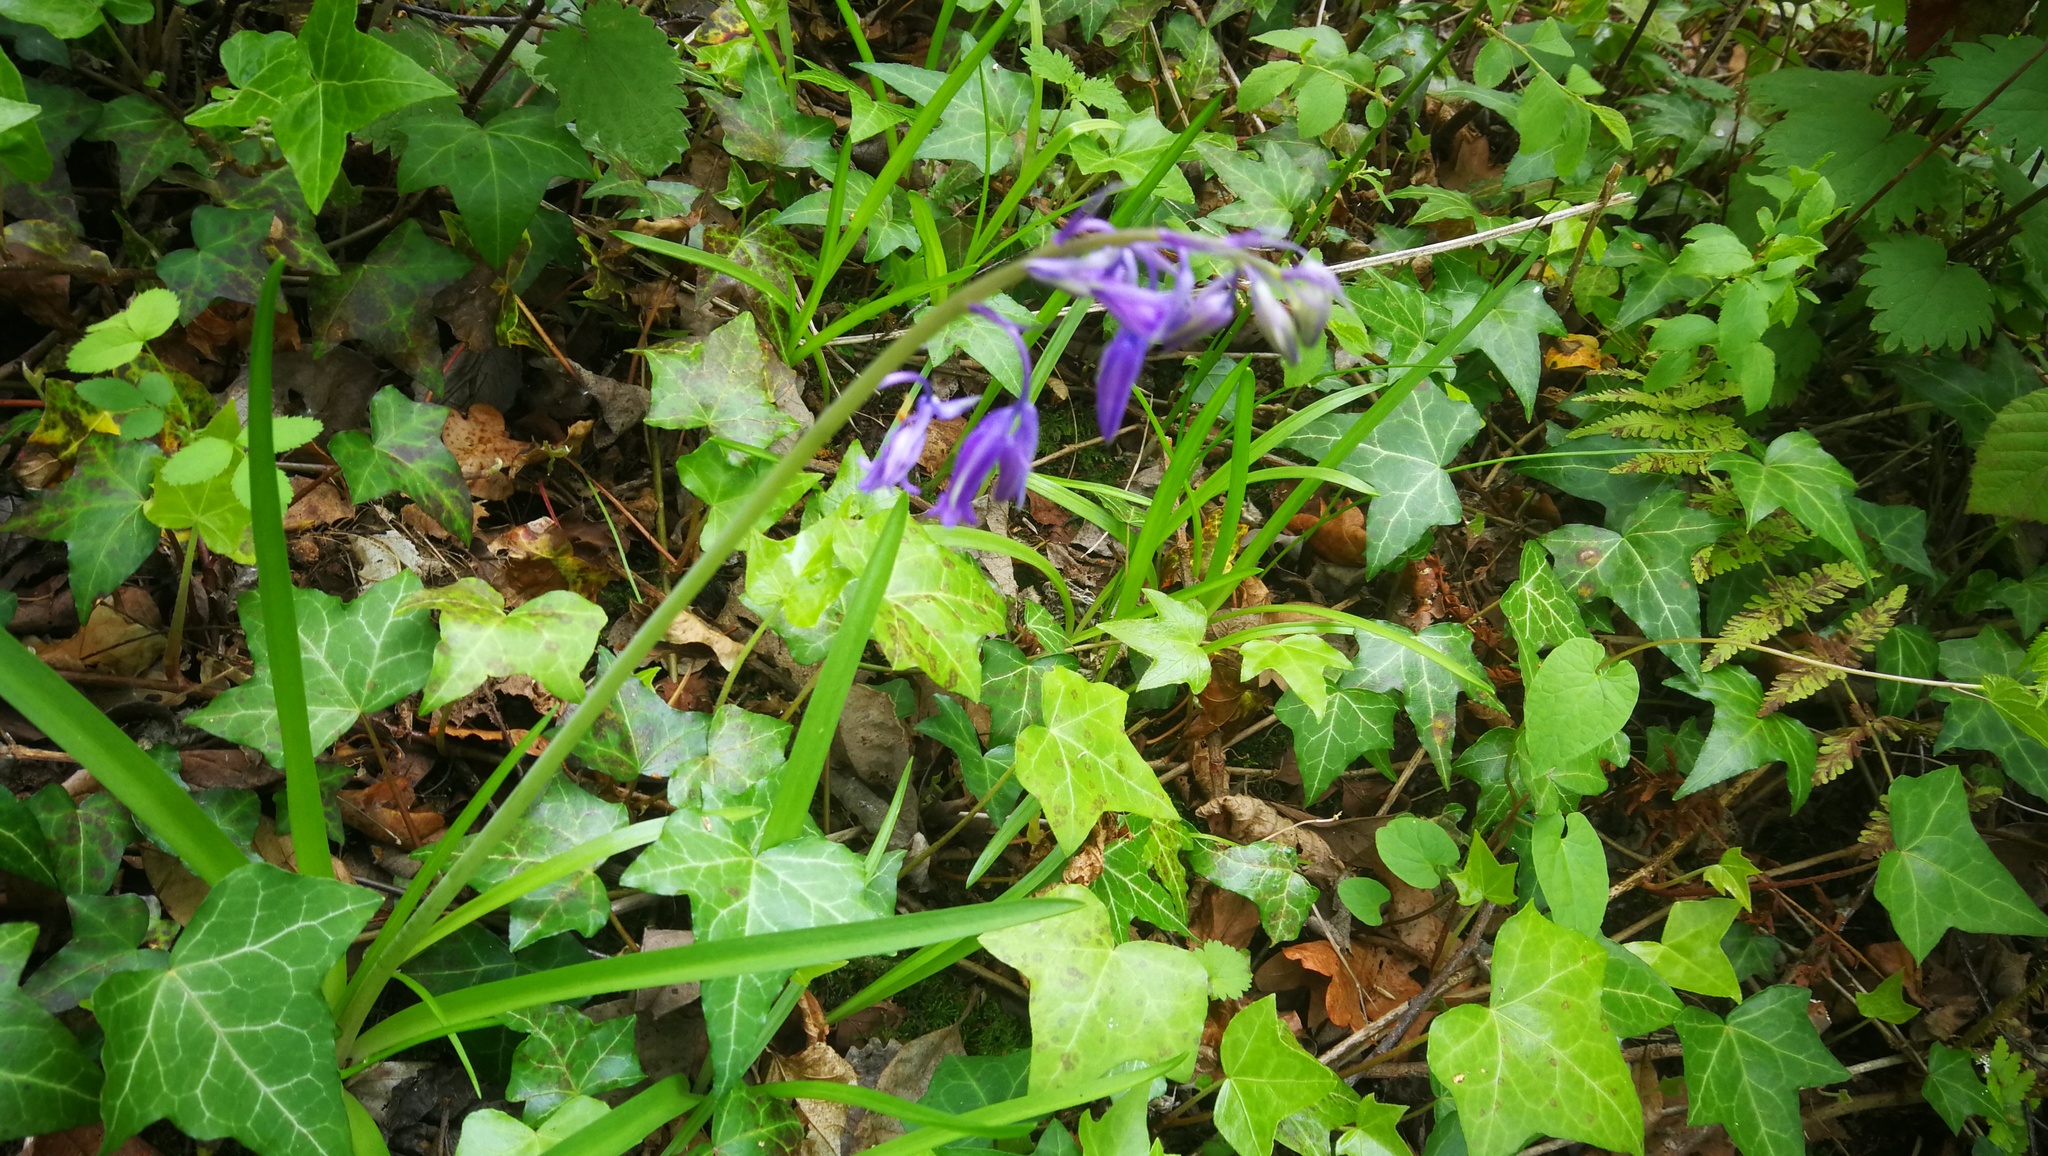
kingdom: Plantae
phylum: Tracheophyta
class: Liliopsida
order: Asparagales
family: Asparagaceae
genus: Hyacinthoides
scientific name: Hyacinthoides non-scripta
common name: Bluebell
